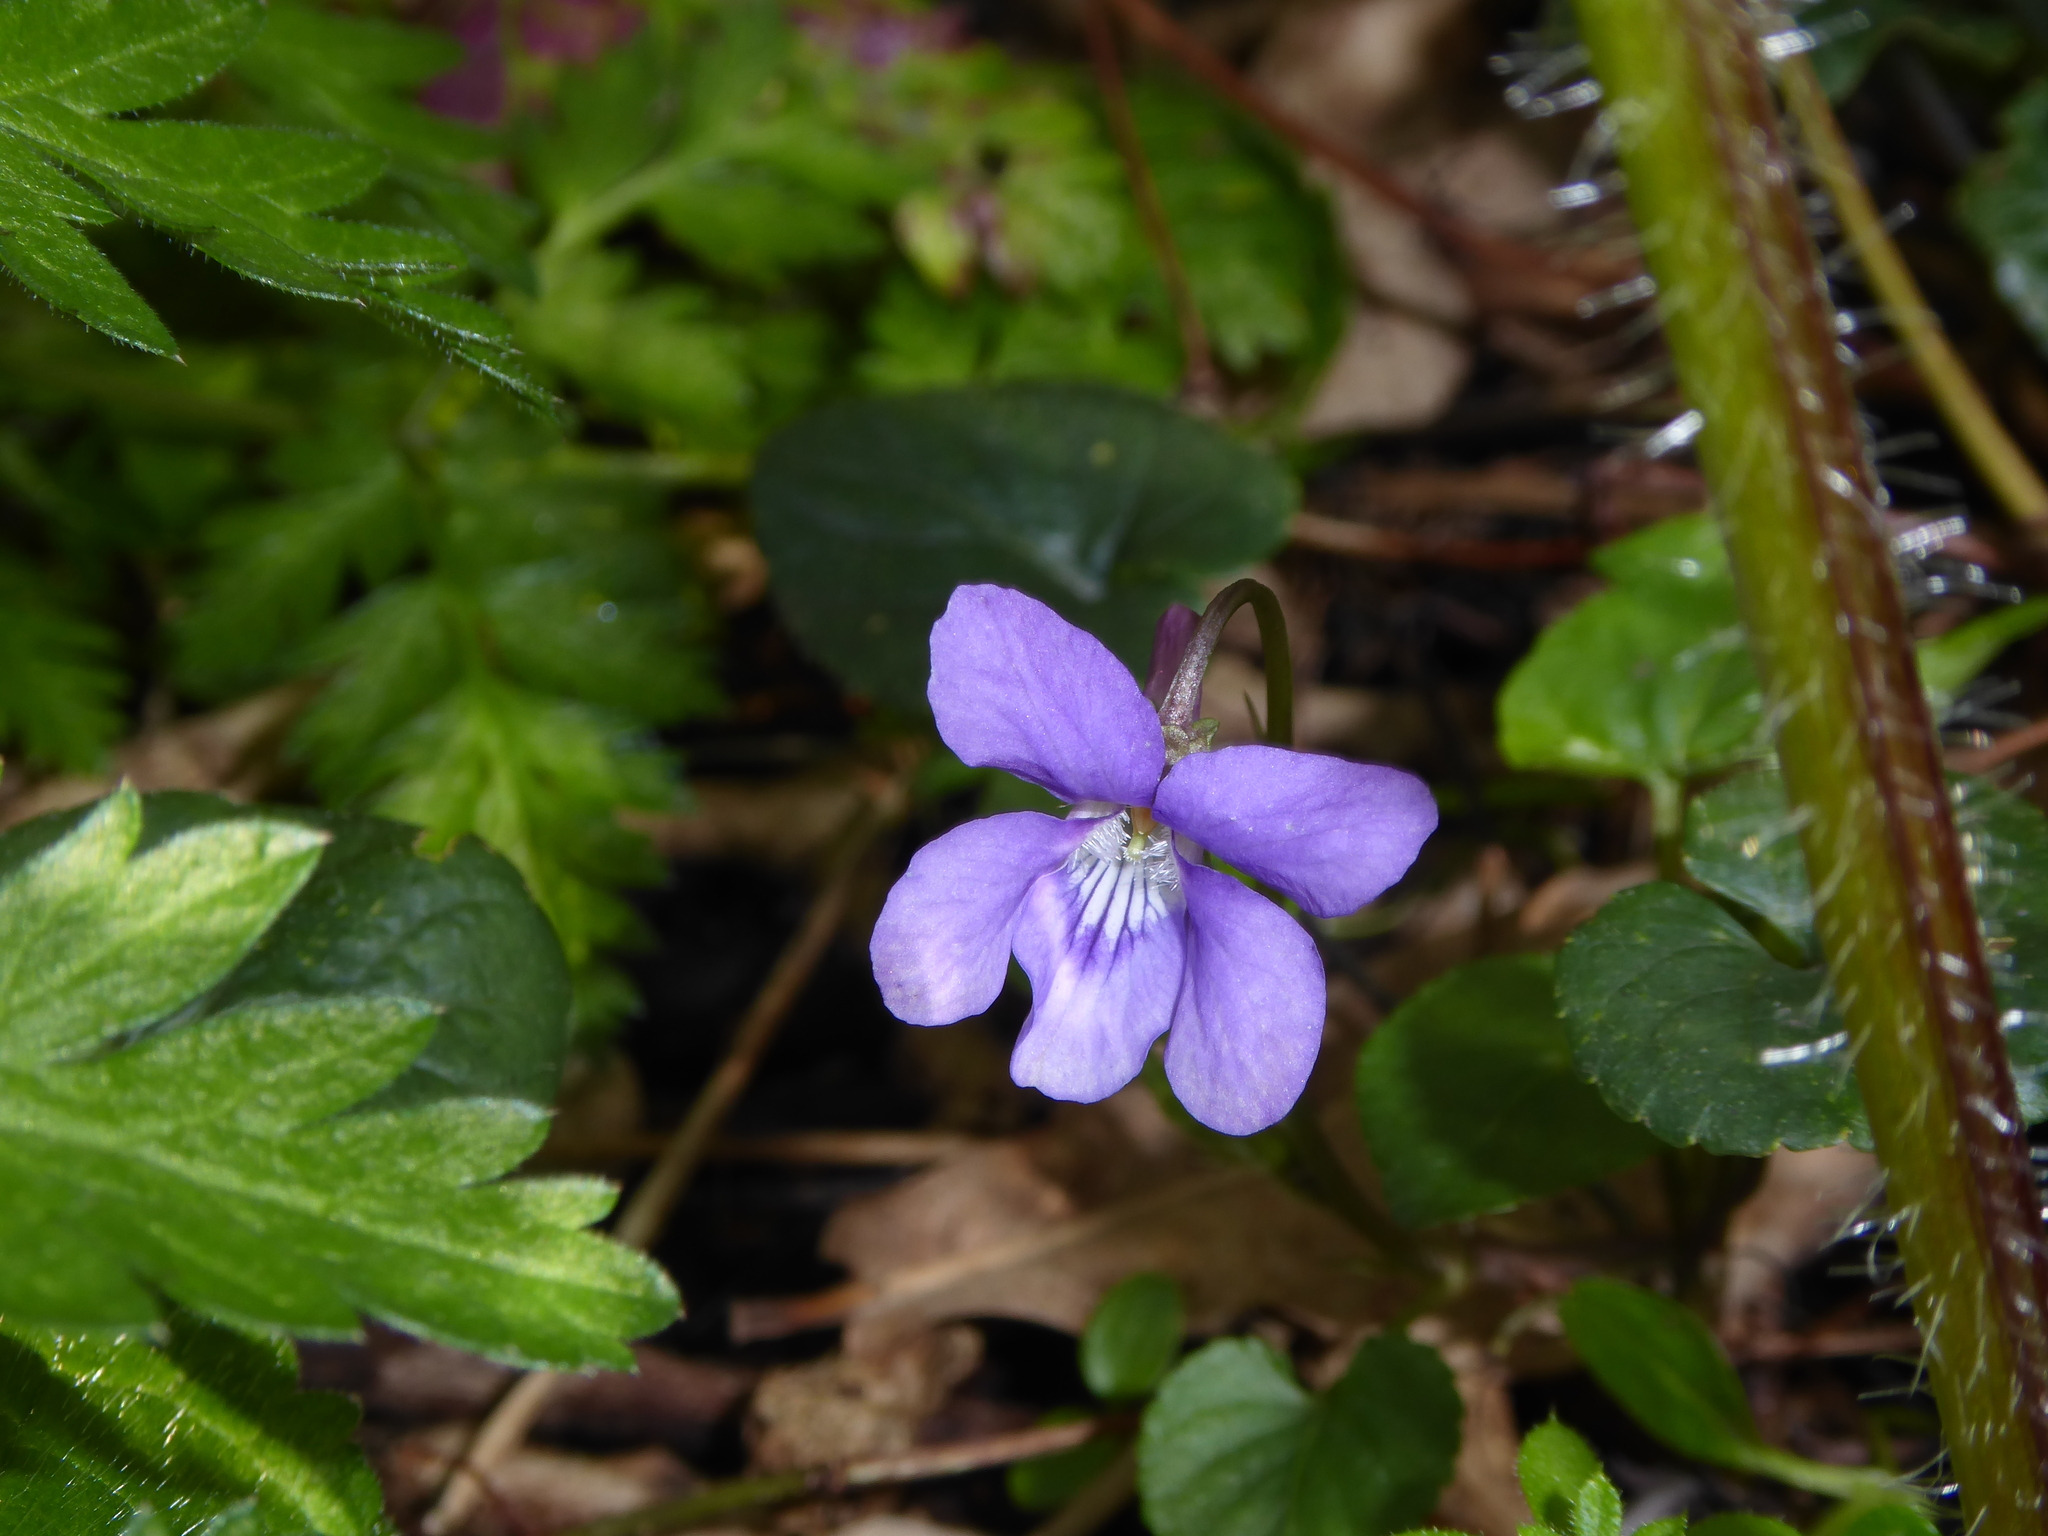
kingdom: Plantae
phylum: Tracheophyta
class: Magnoliopsida
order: Malpighiales
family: Violaceae
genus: Viola
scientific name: Viola reichenbachiana
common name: Early dog-violet
